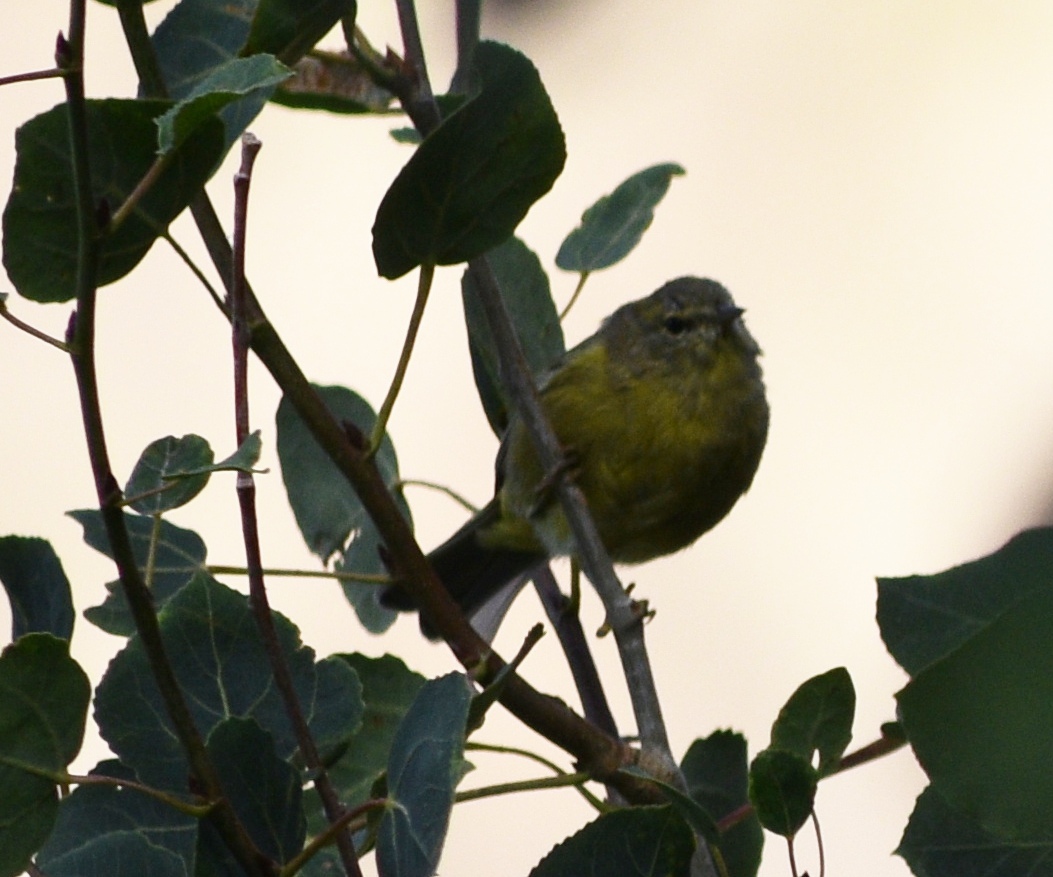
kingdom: Animalia
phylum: Chordata
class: Aves
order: Passeriformes
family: Parulidae
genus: Leiothlypis
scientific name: Leiothlypis celata
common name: Orange-crowned warbler
